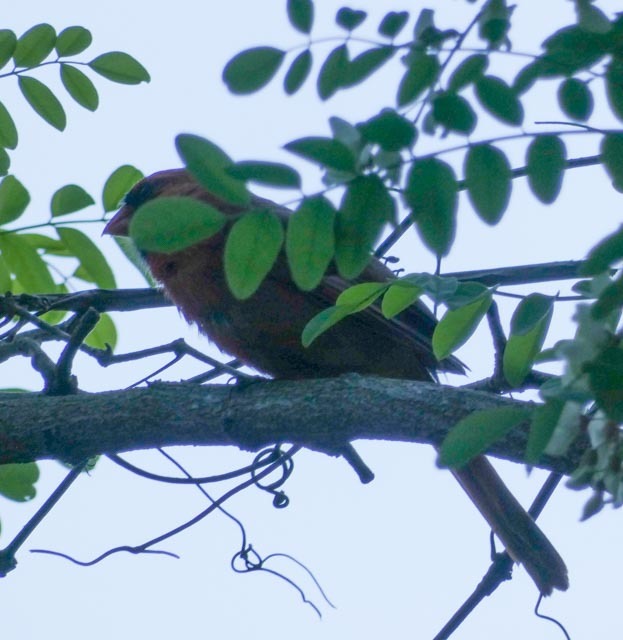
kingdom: Animalia
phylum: Chordata
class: Aves
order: Passeriformes
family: Cardinalidae
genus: Cardinalis
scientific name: Cardinalis cardinalis
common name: Northern cardinal
